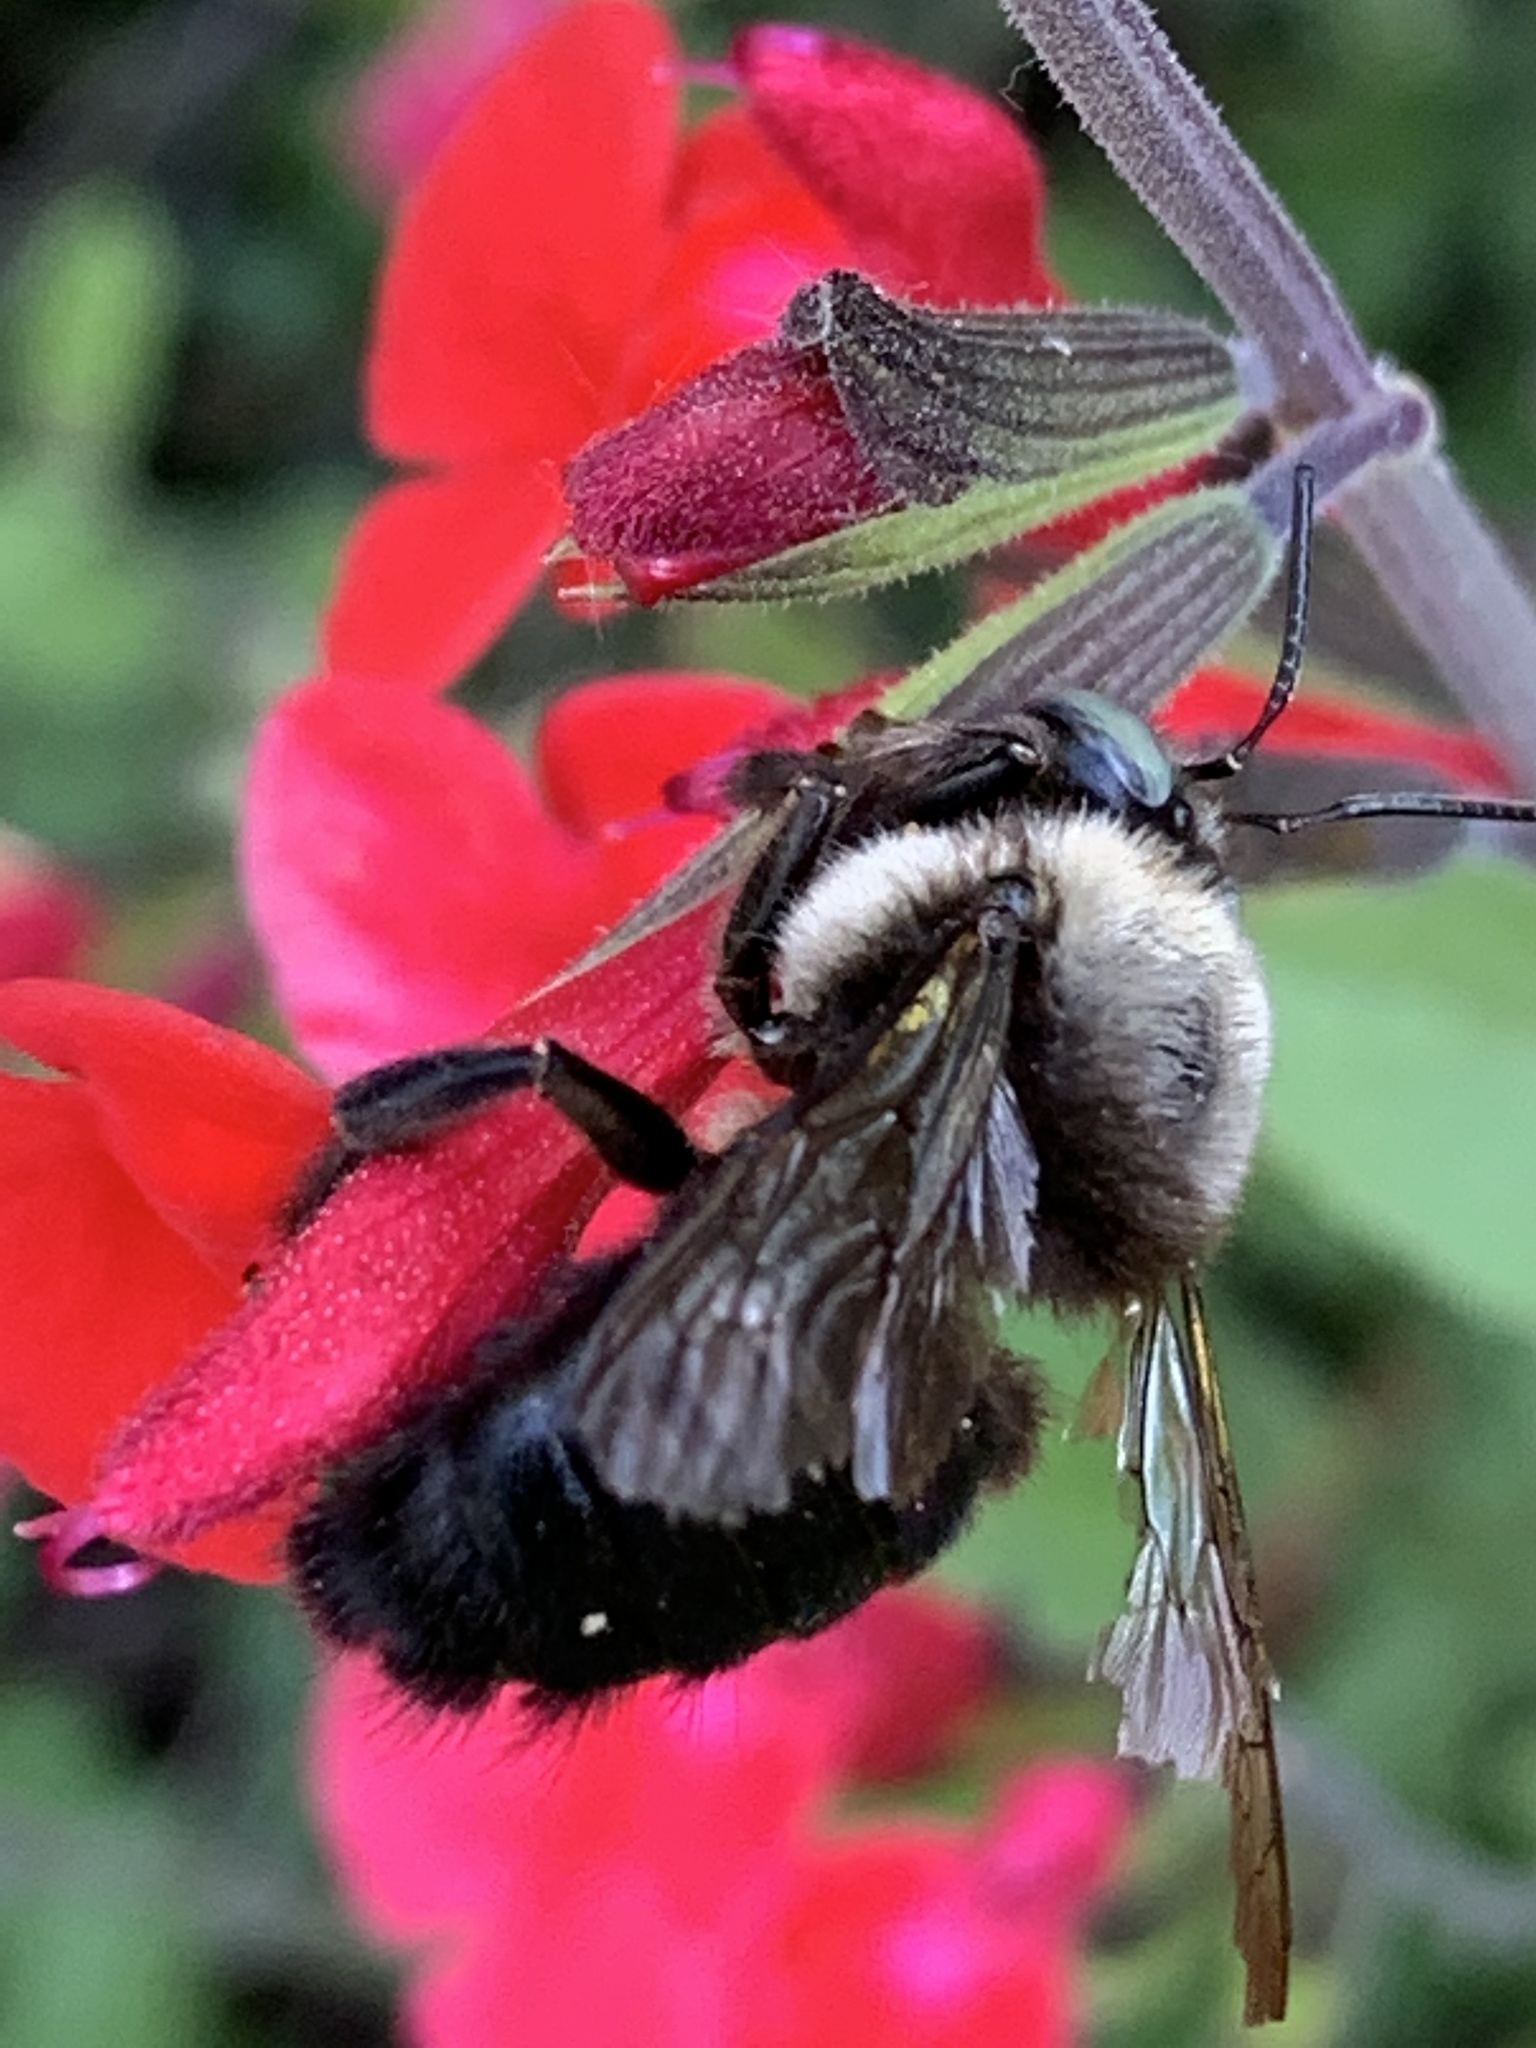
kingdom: Animalia
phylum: Arthropoda
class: Insecta
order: Hymenoptera
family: Apidae
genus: Xylocopa
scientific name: Xylocopa tabaniformis
